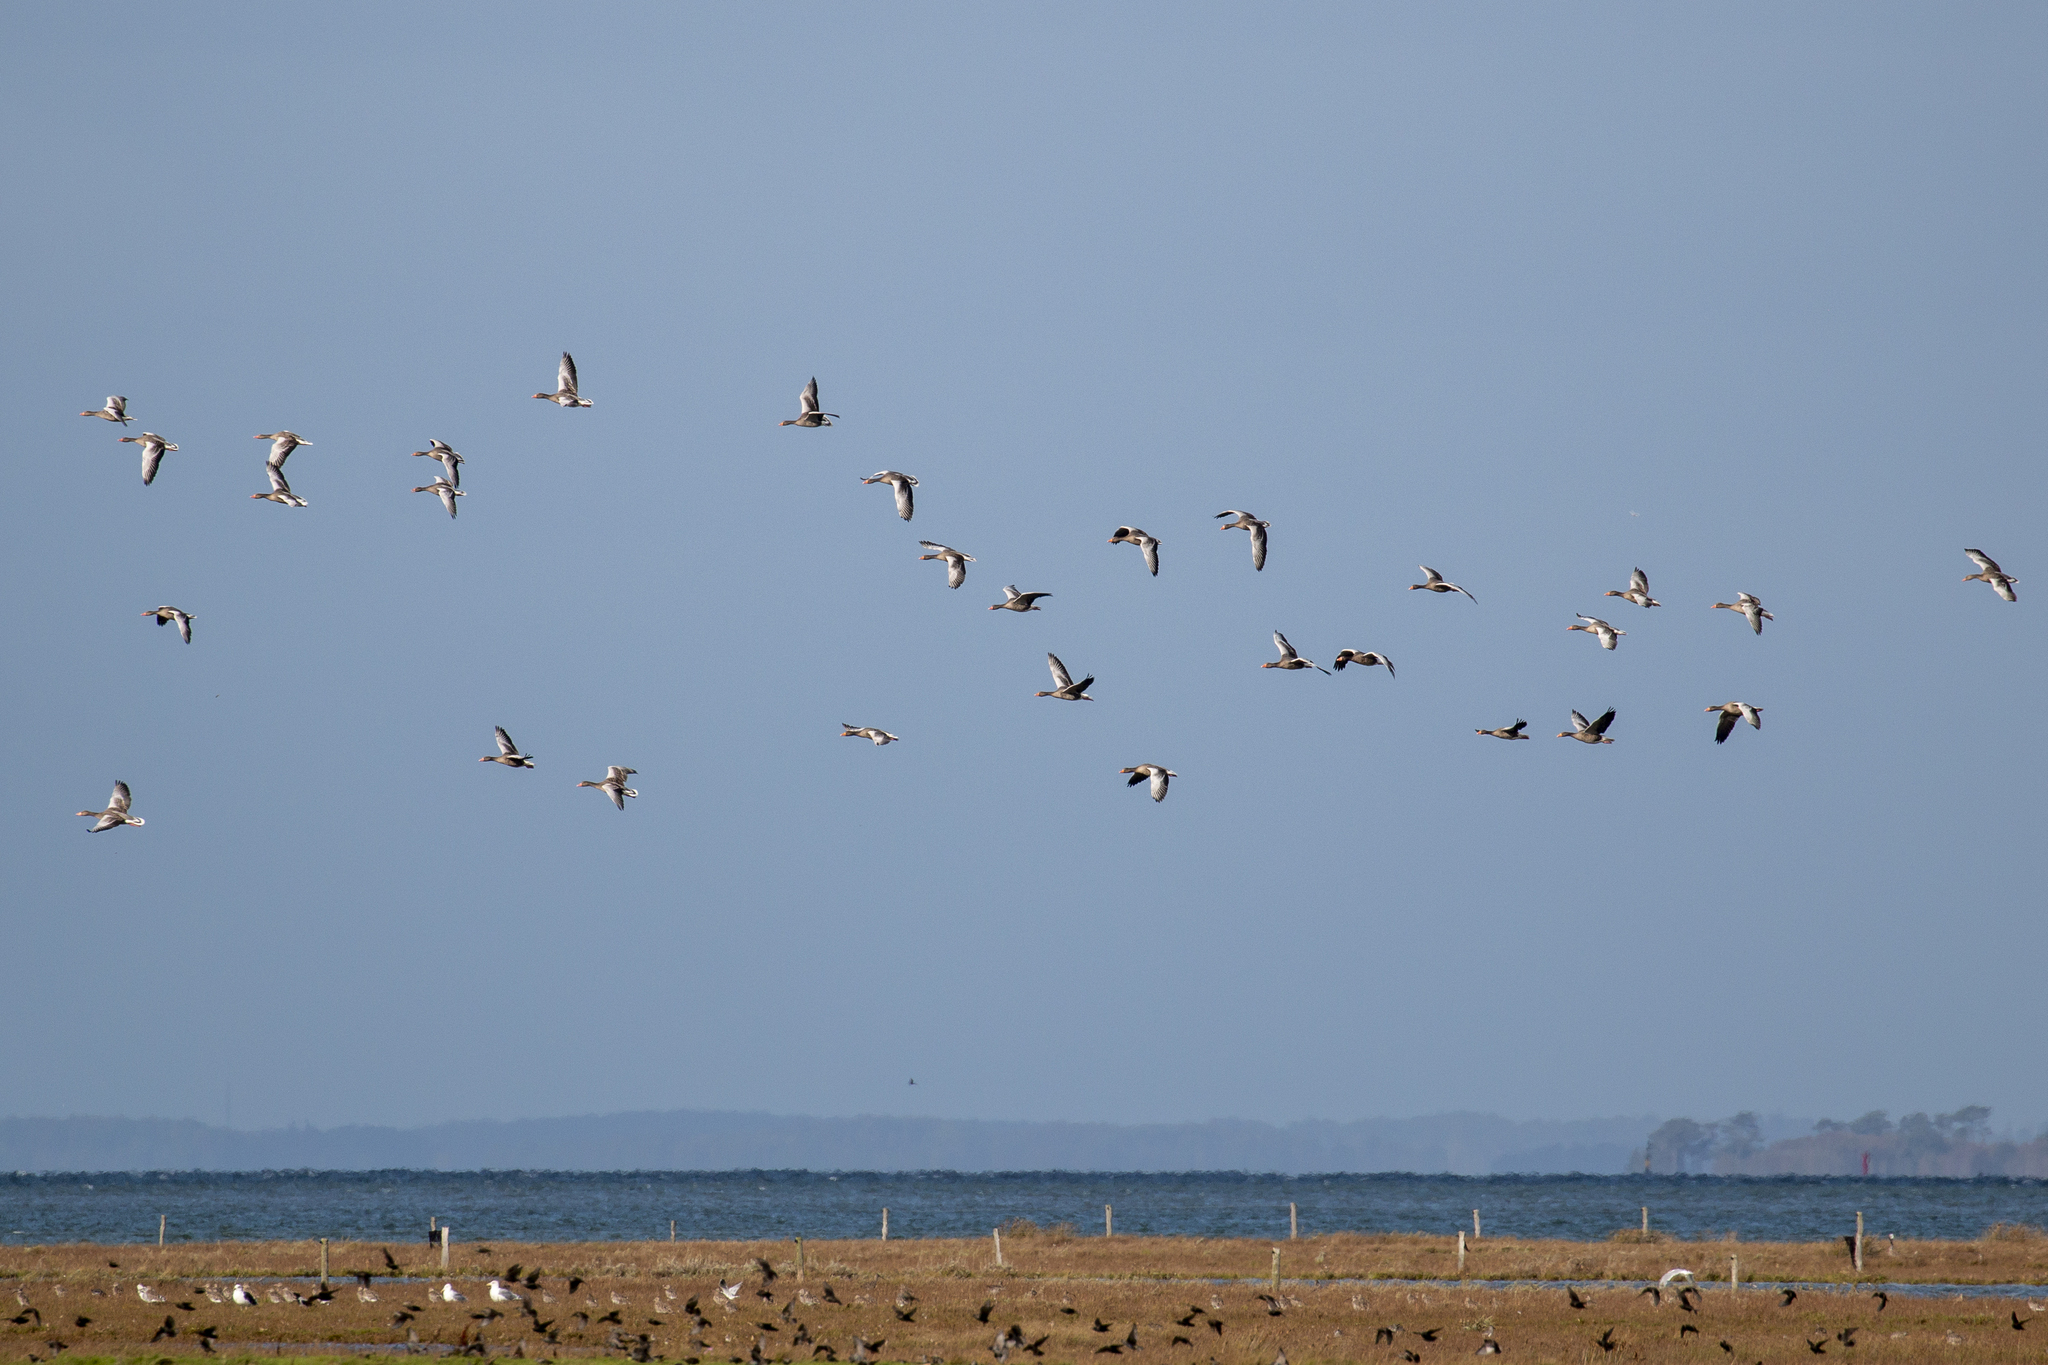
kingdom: Animalia
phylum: Chordata
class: Aves
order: Anseriformes
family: Anatidae
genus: Anser
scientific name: Anser anser
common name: Greylag goose
